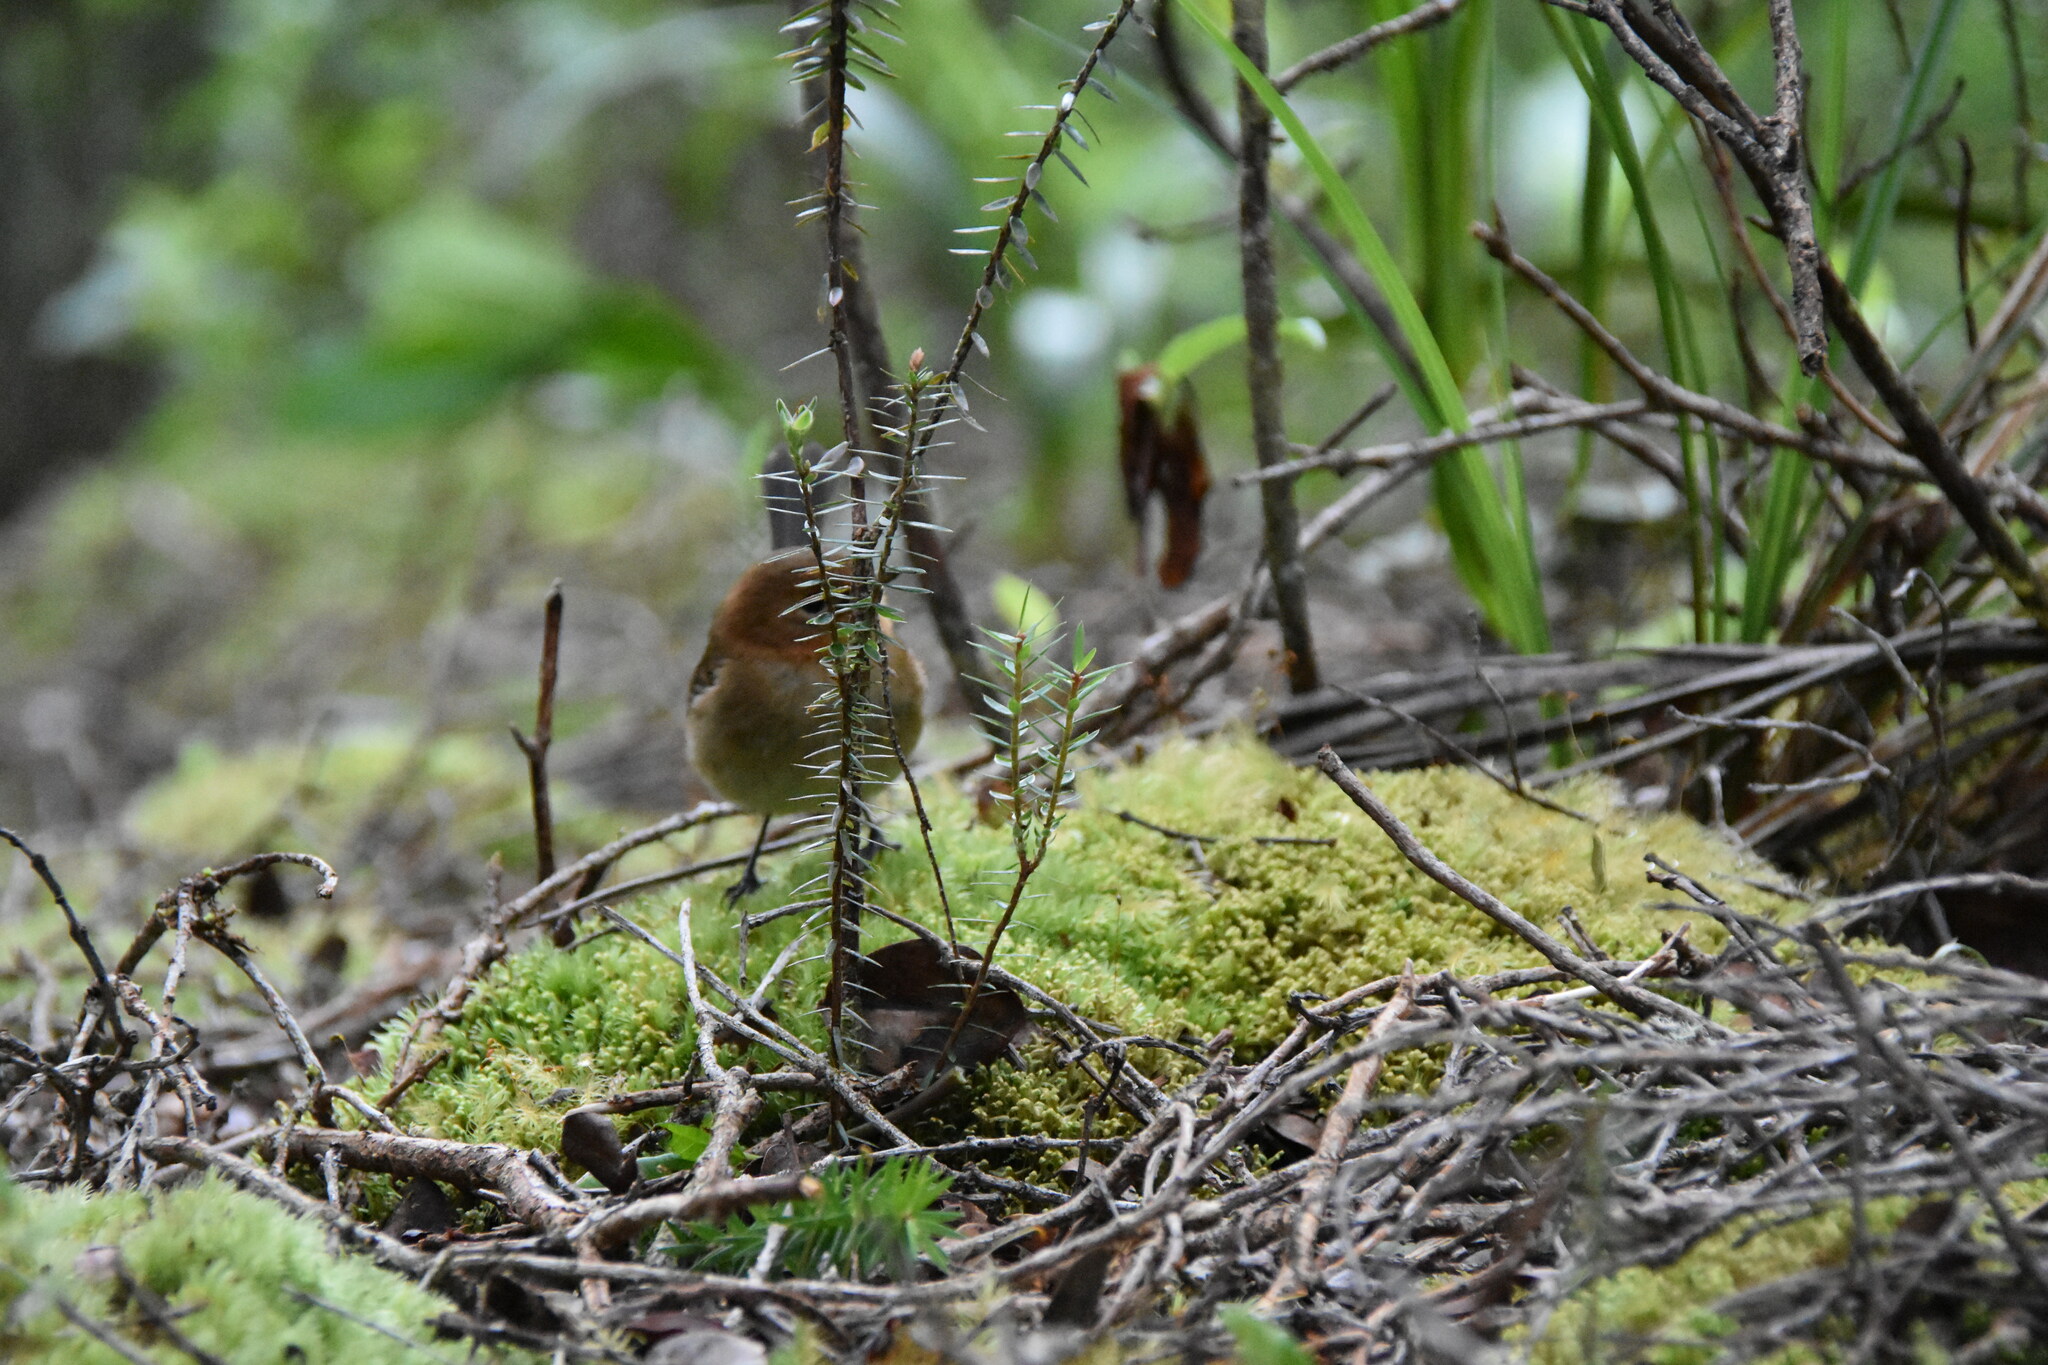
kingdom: Plantae
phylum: Tracheophyta
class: Magnoliopsida
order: Ericales
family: Ericaceae
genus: Leptecophylla
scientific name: Leptecophylla tameiameiae
